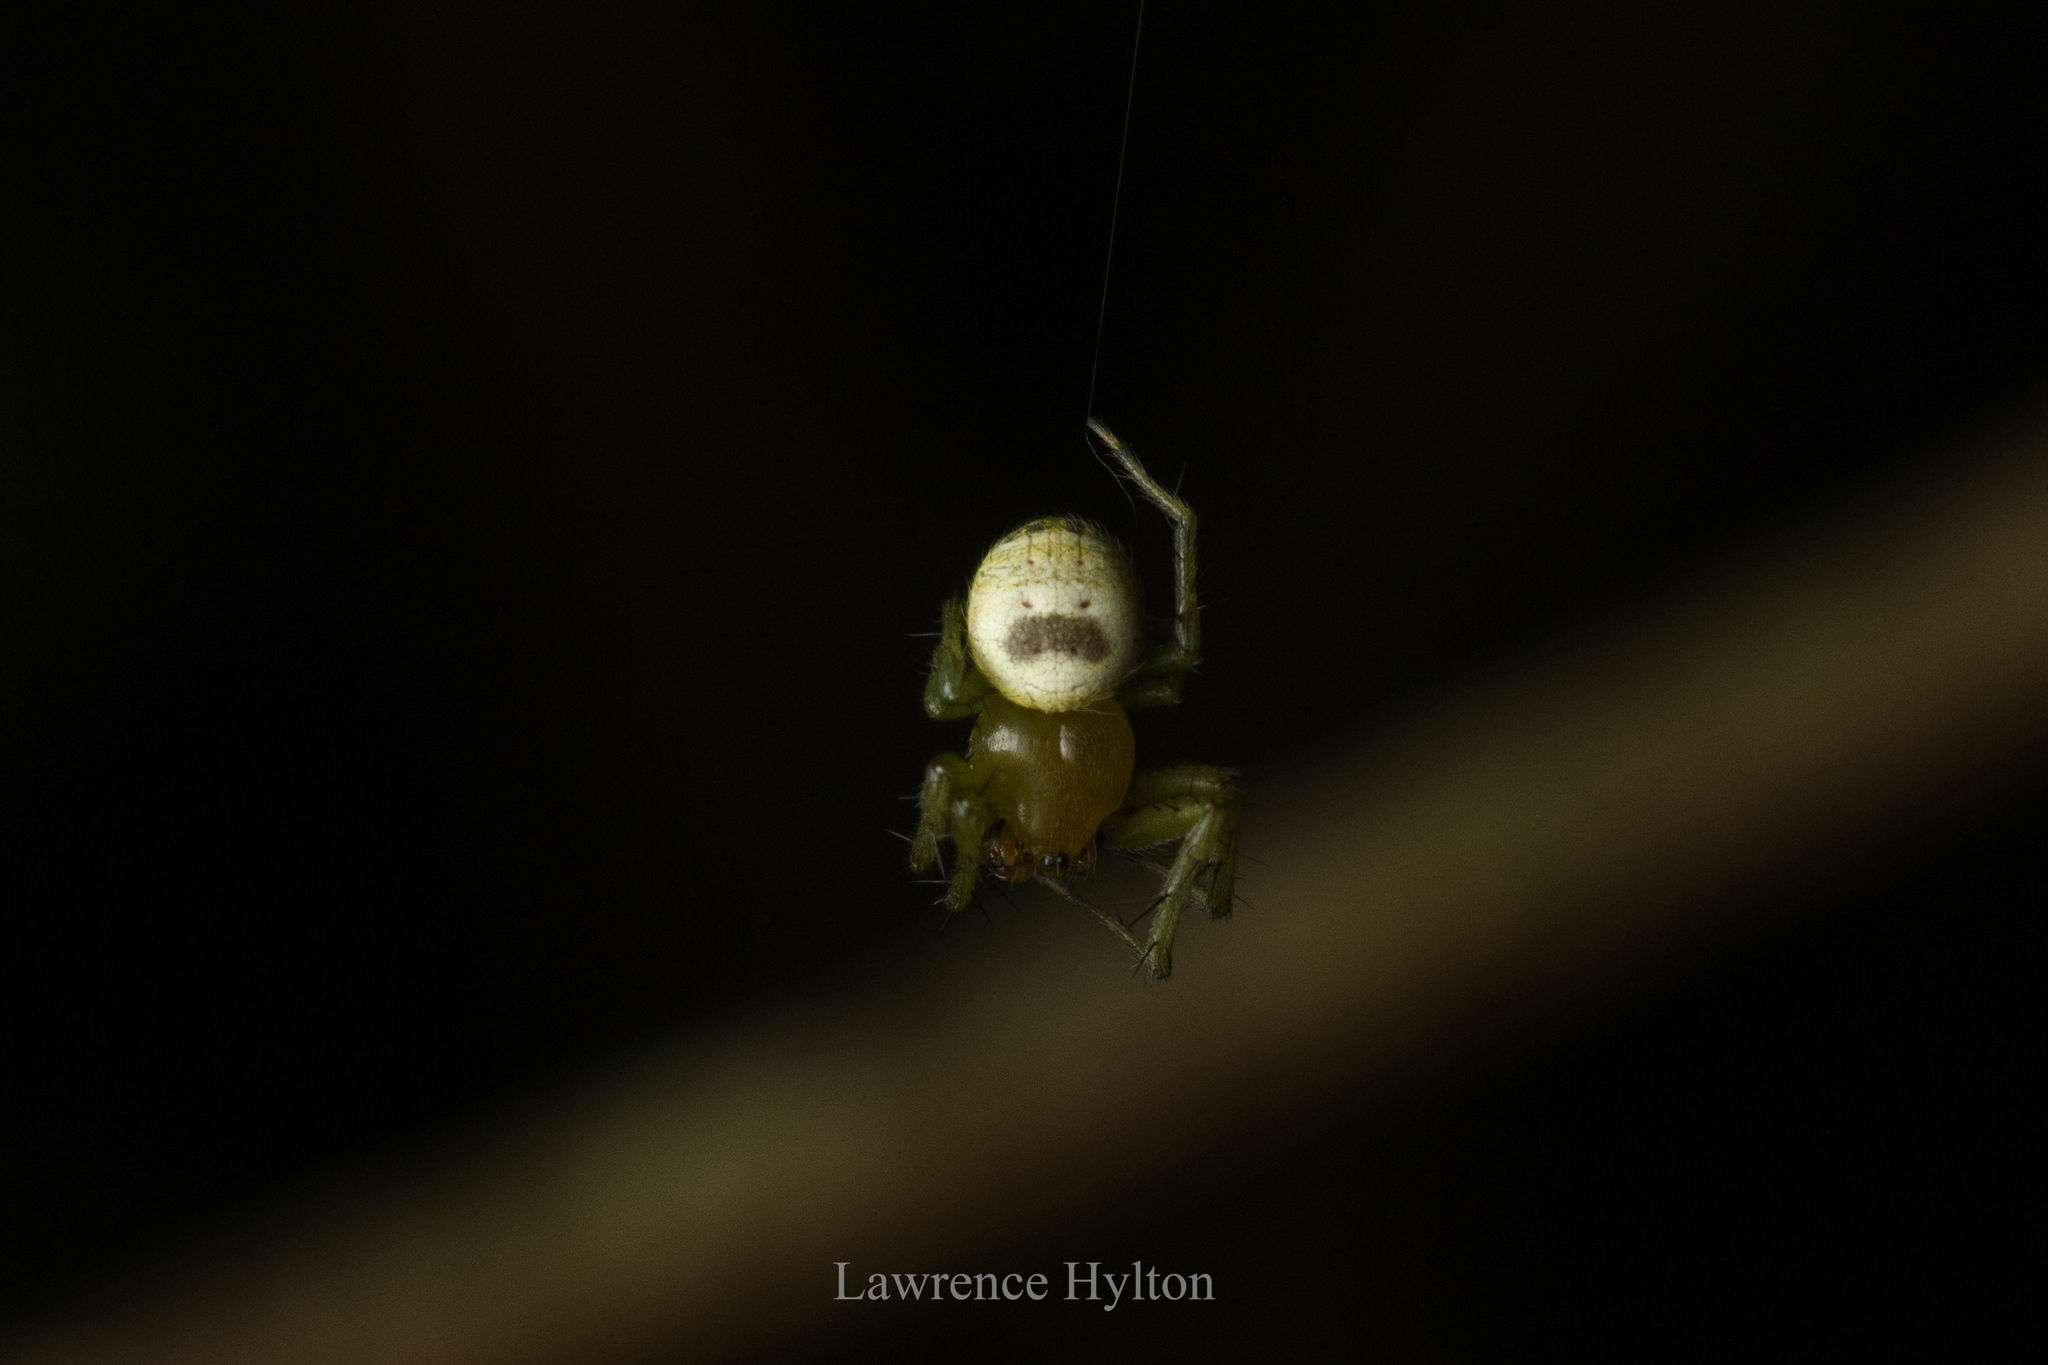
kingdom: Animalia
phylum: Arthropoda
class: Arachnida
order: Araneae
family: Araneidae
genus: Bijoaraneus
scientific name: Bijoaraneus mitificus
